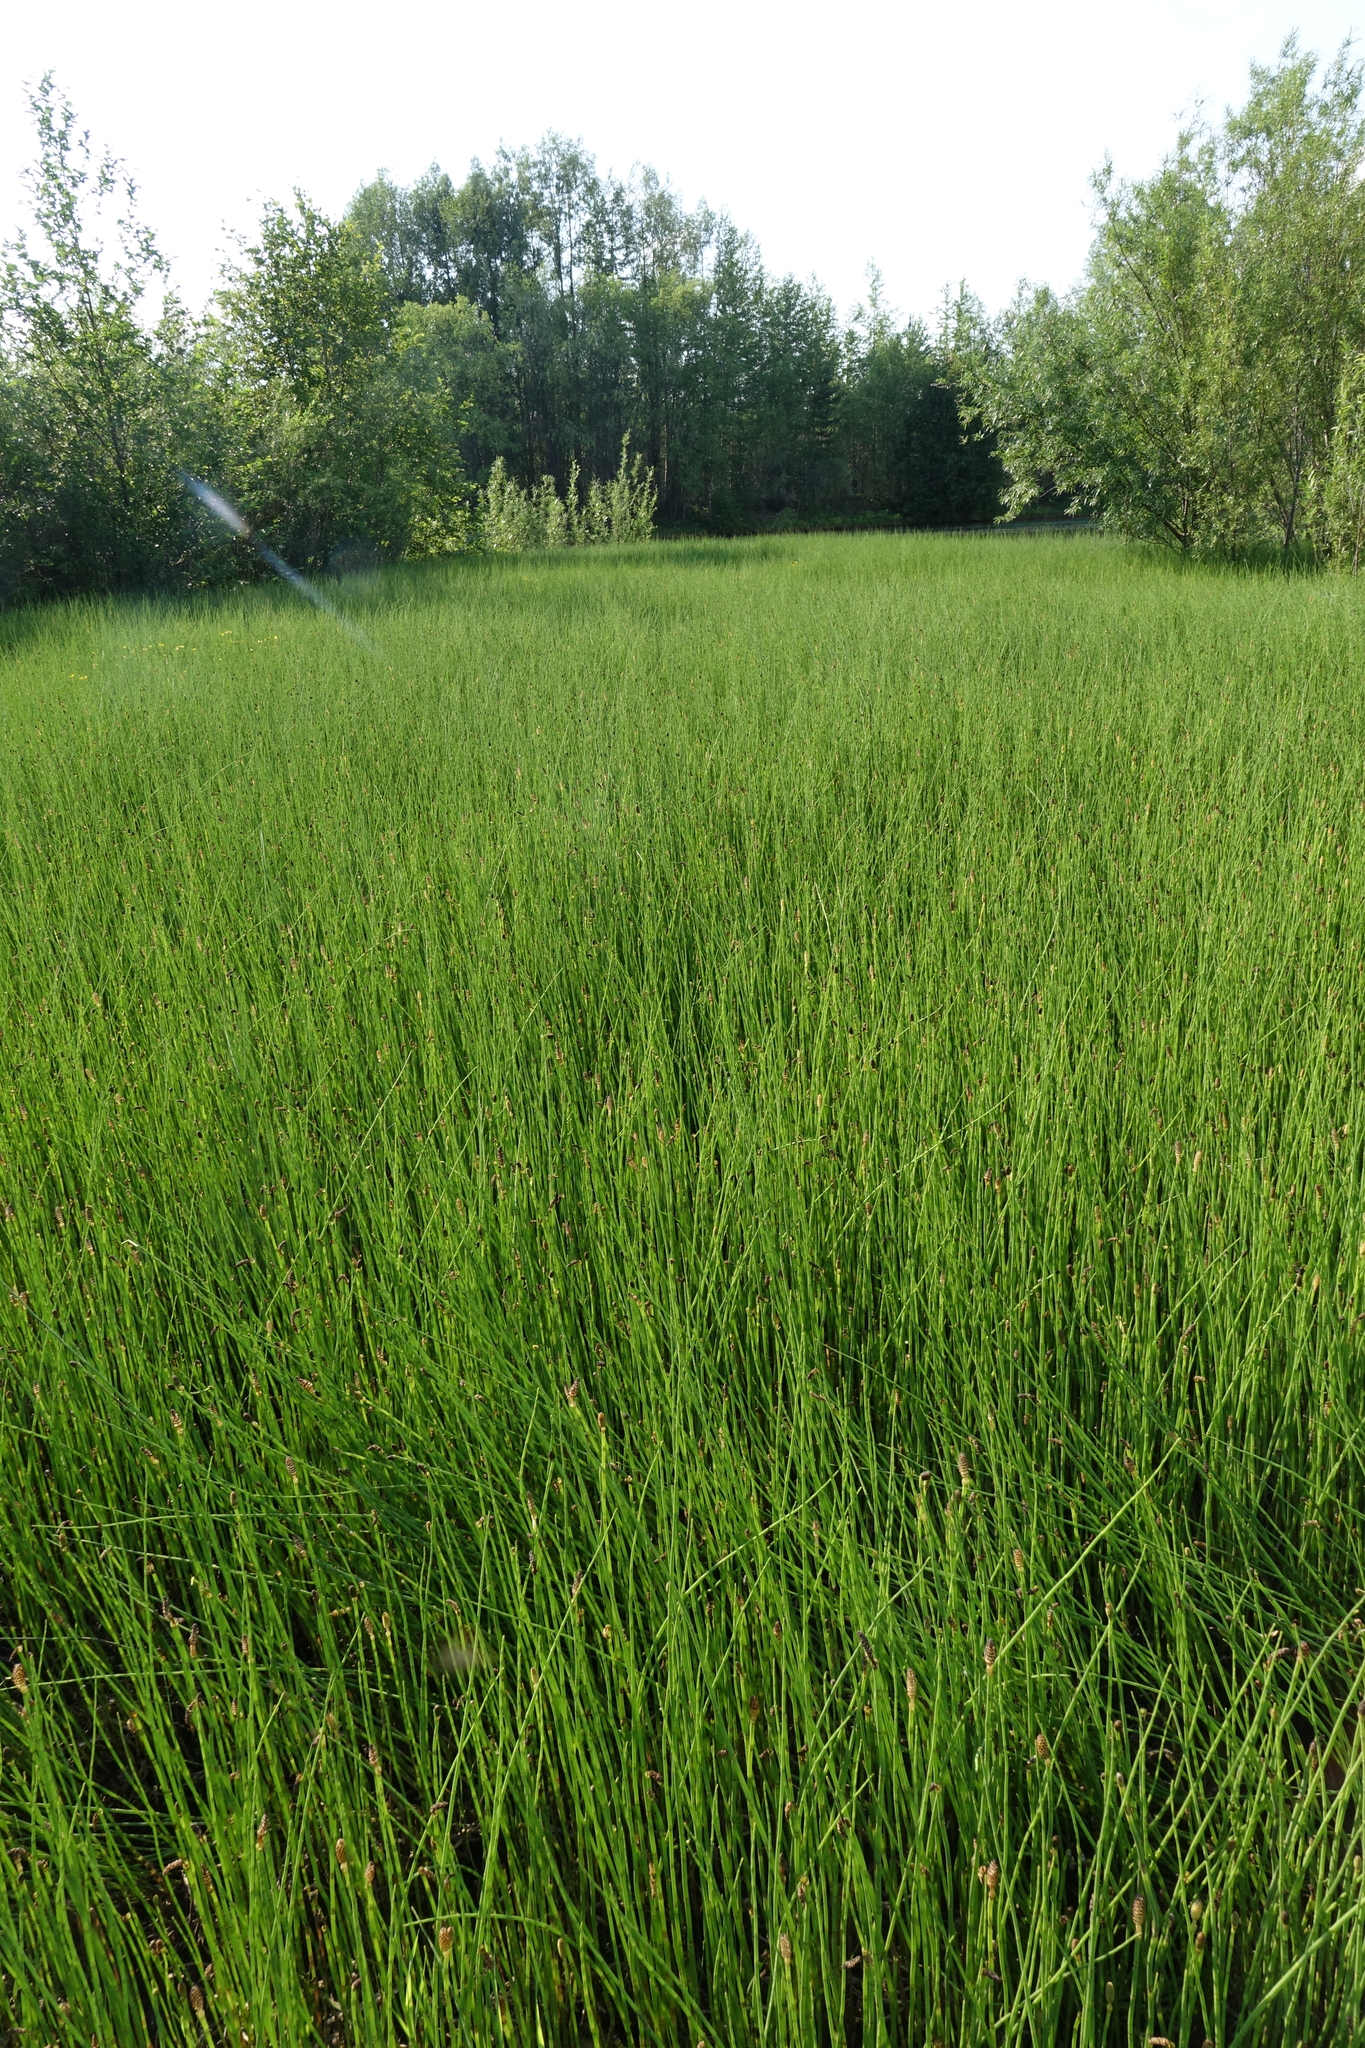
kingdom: Plantae
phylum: Tracheophyta
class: Polypodiopsida
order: Equisetales
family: Equisetaceae
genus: Equisetum
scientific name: Equisetum fluviatile
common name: Water horsetail
